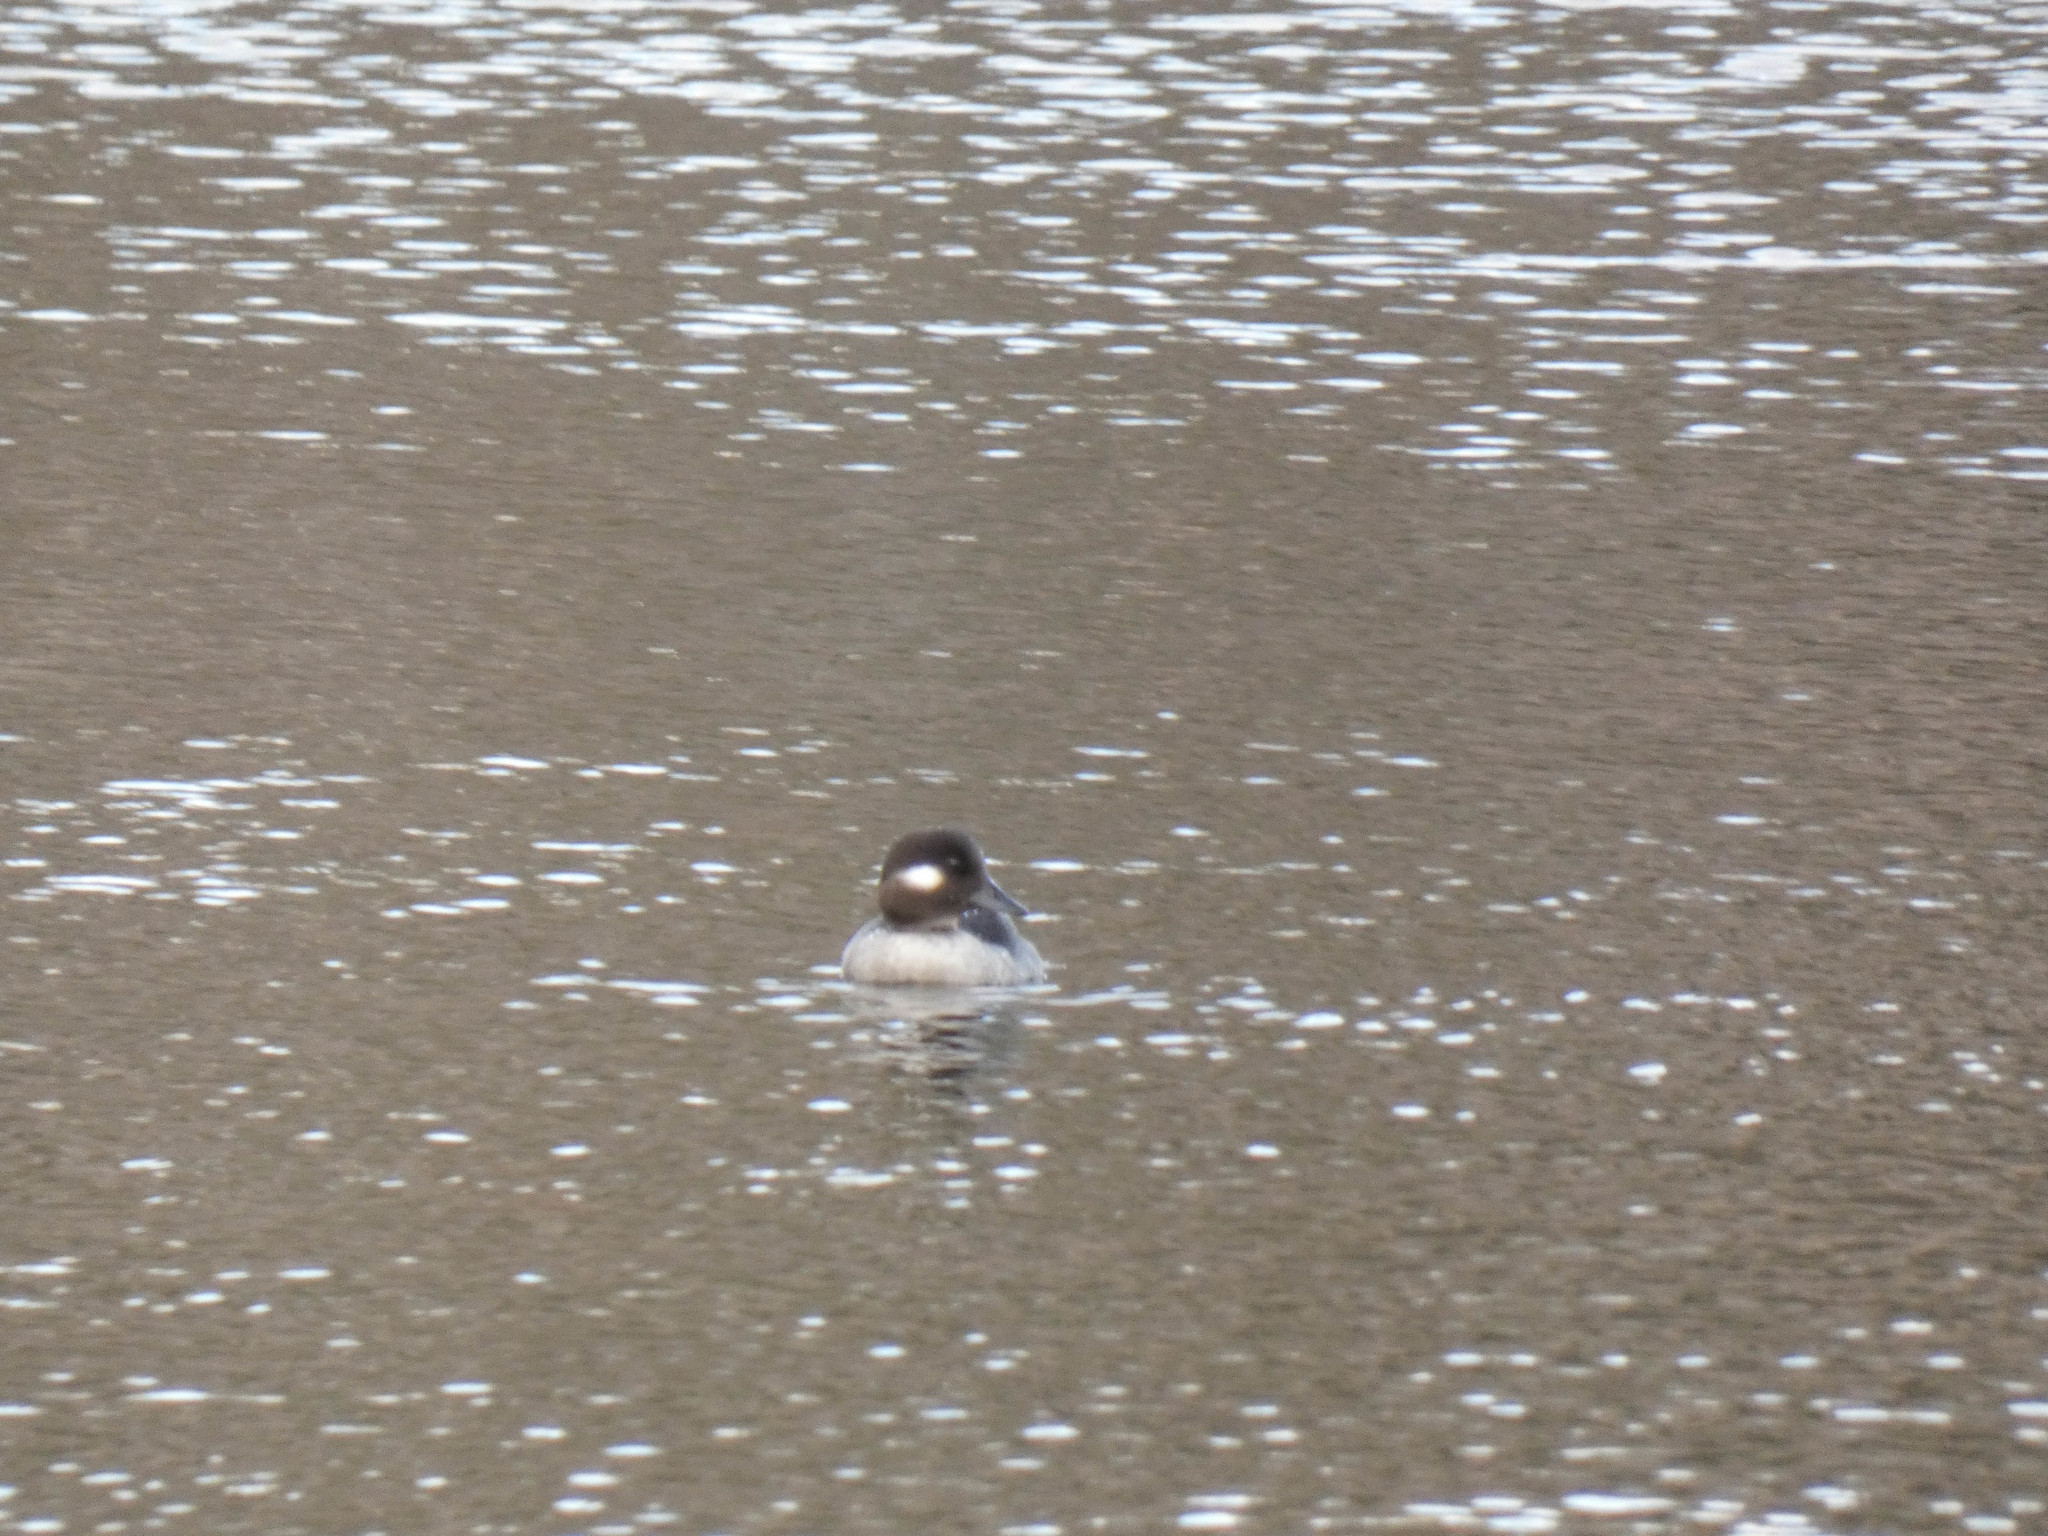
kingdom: Animalia
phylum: Chordata
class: Aves
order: Anseriformes
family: Anatidae
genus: Bucephala
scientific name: Bucephala albeola
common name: Bufflehead
